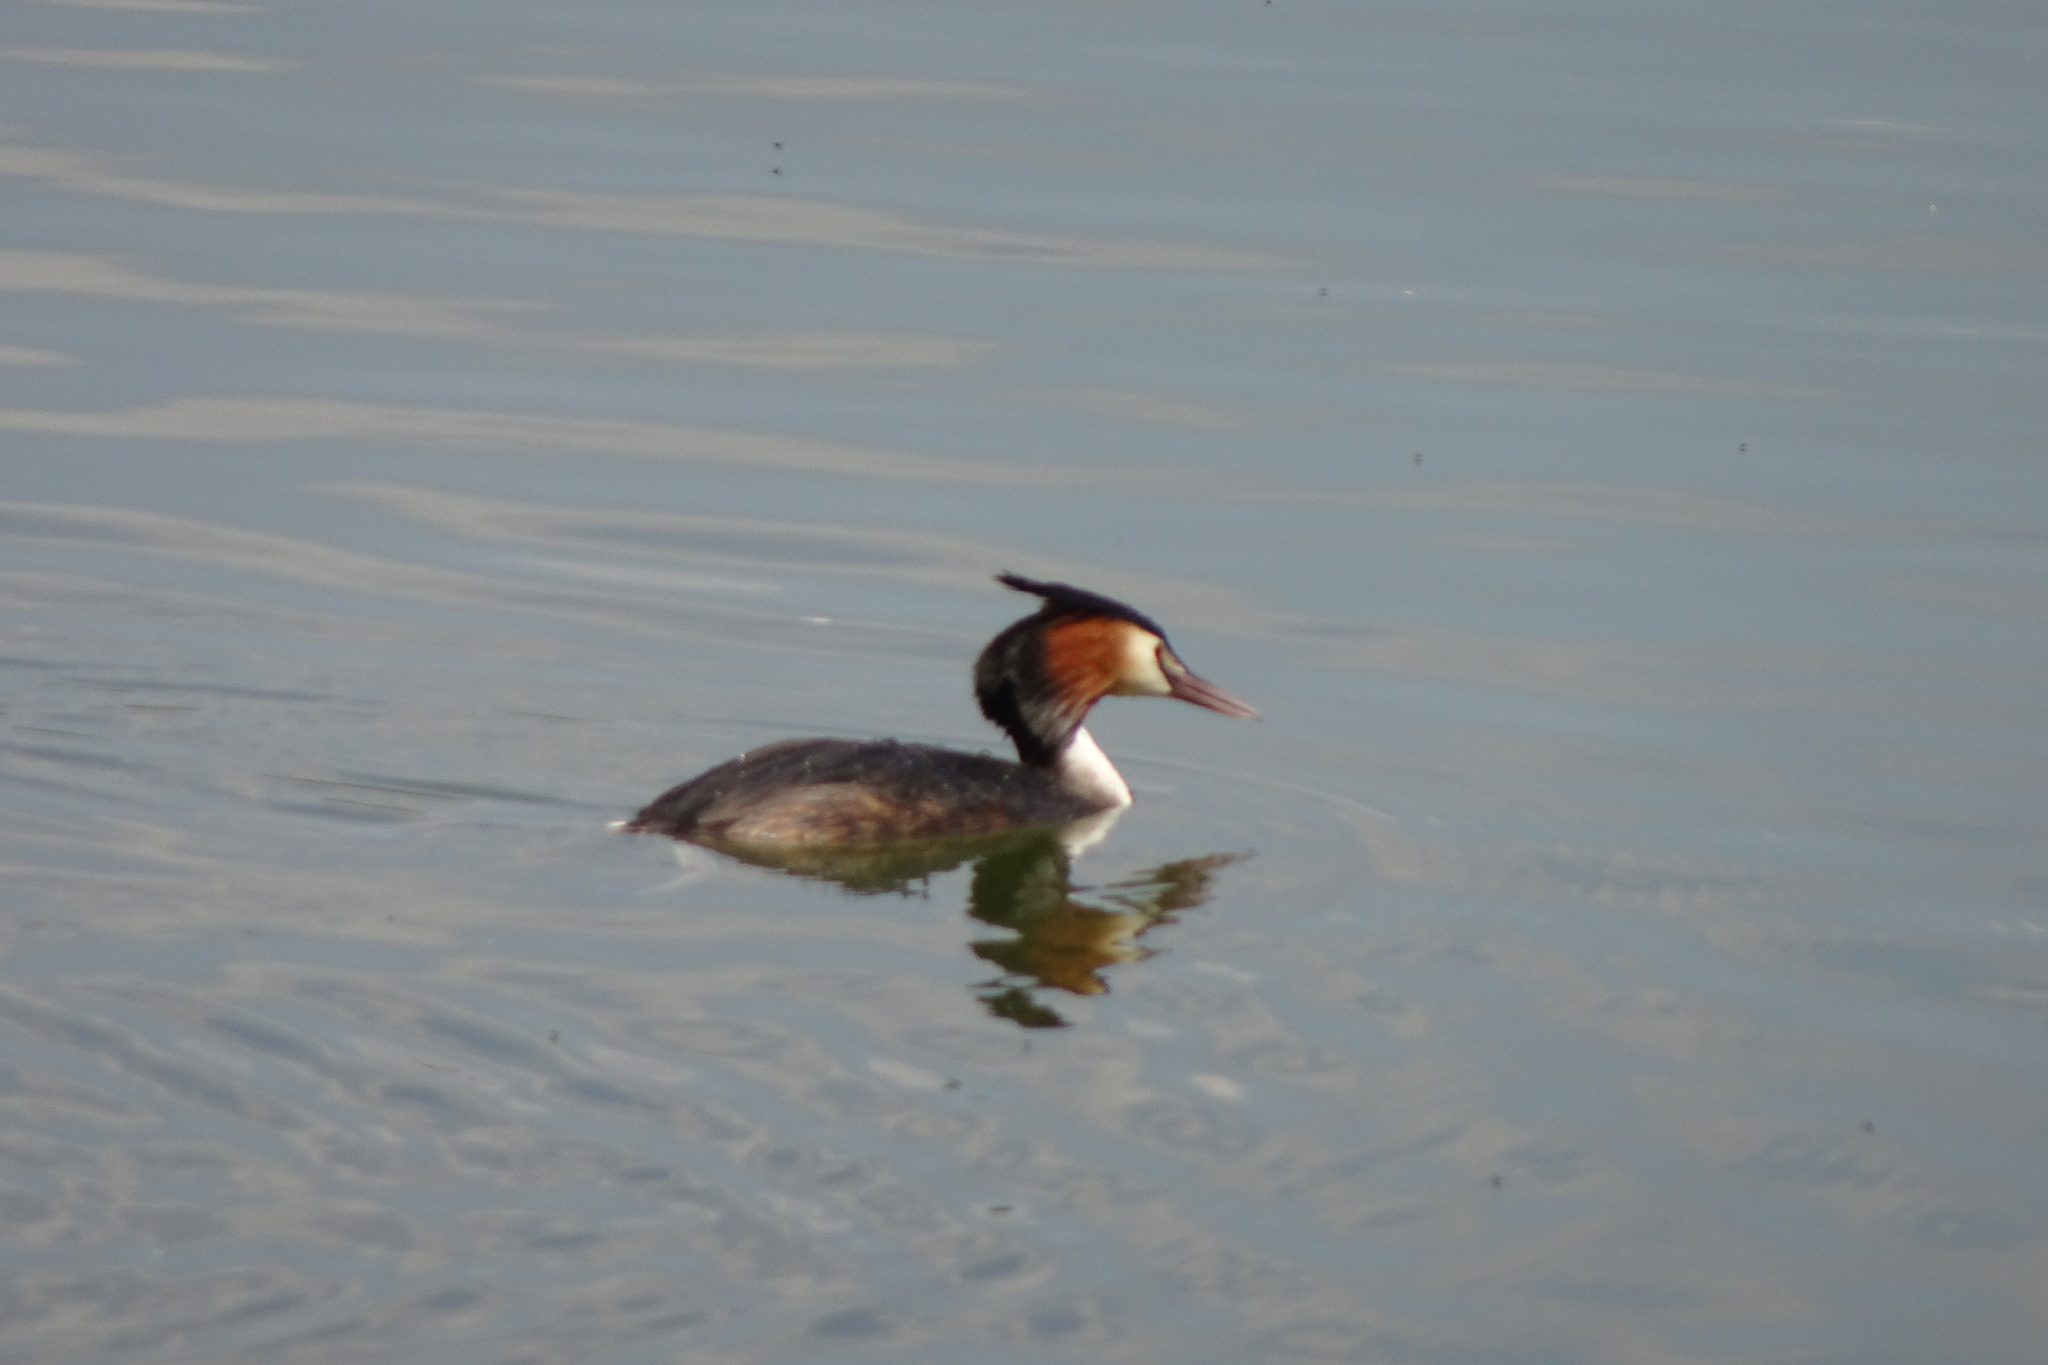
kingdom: Animalia
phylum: Chordata
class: Aves
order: Podicipediformes
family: Podicipedidae
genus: Podiceps
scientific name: Podiceps cristatus
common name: Great crested grebe
